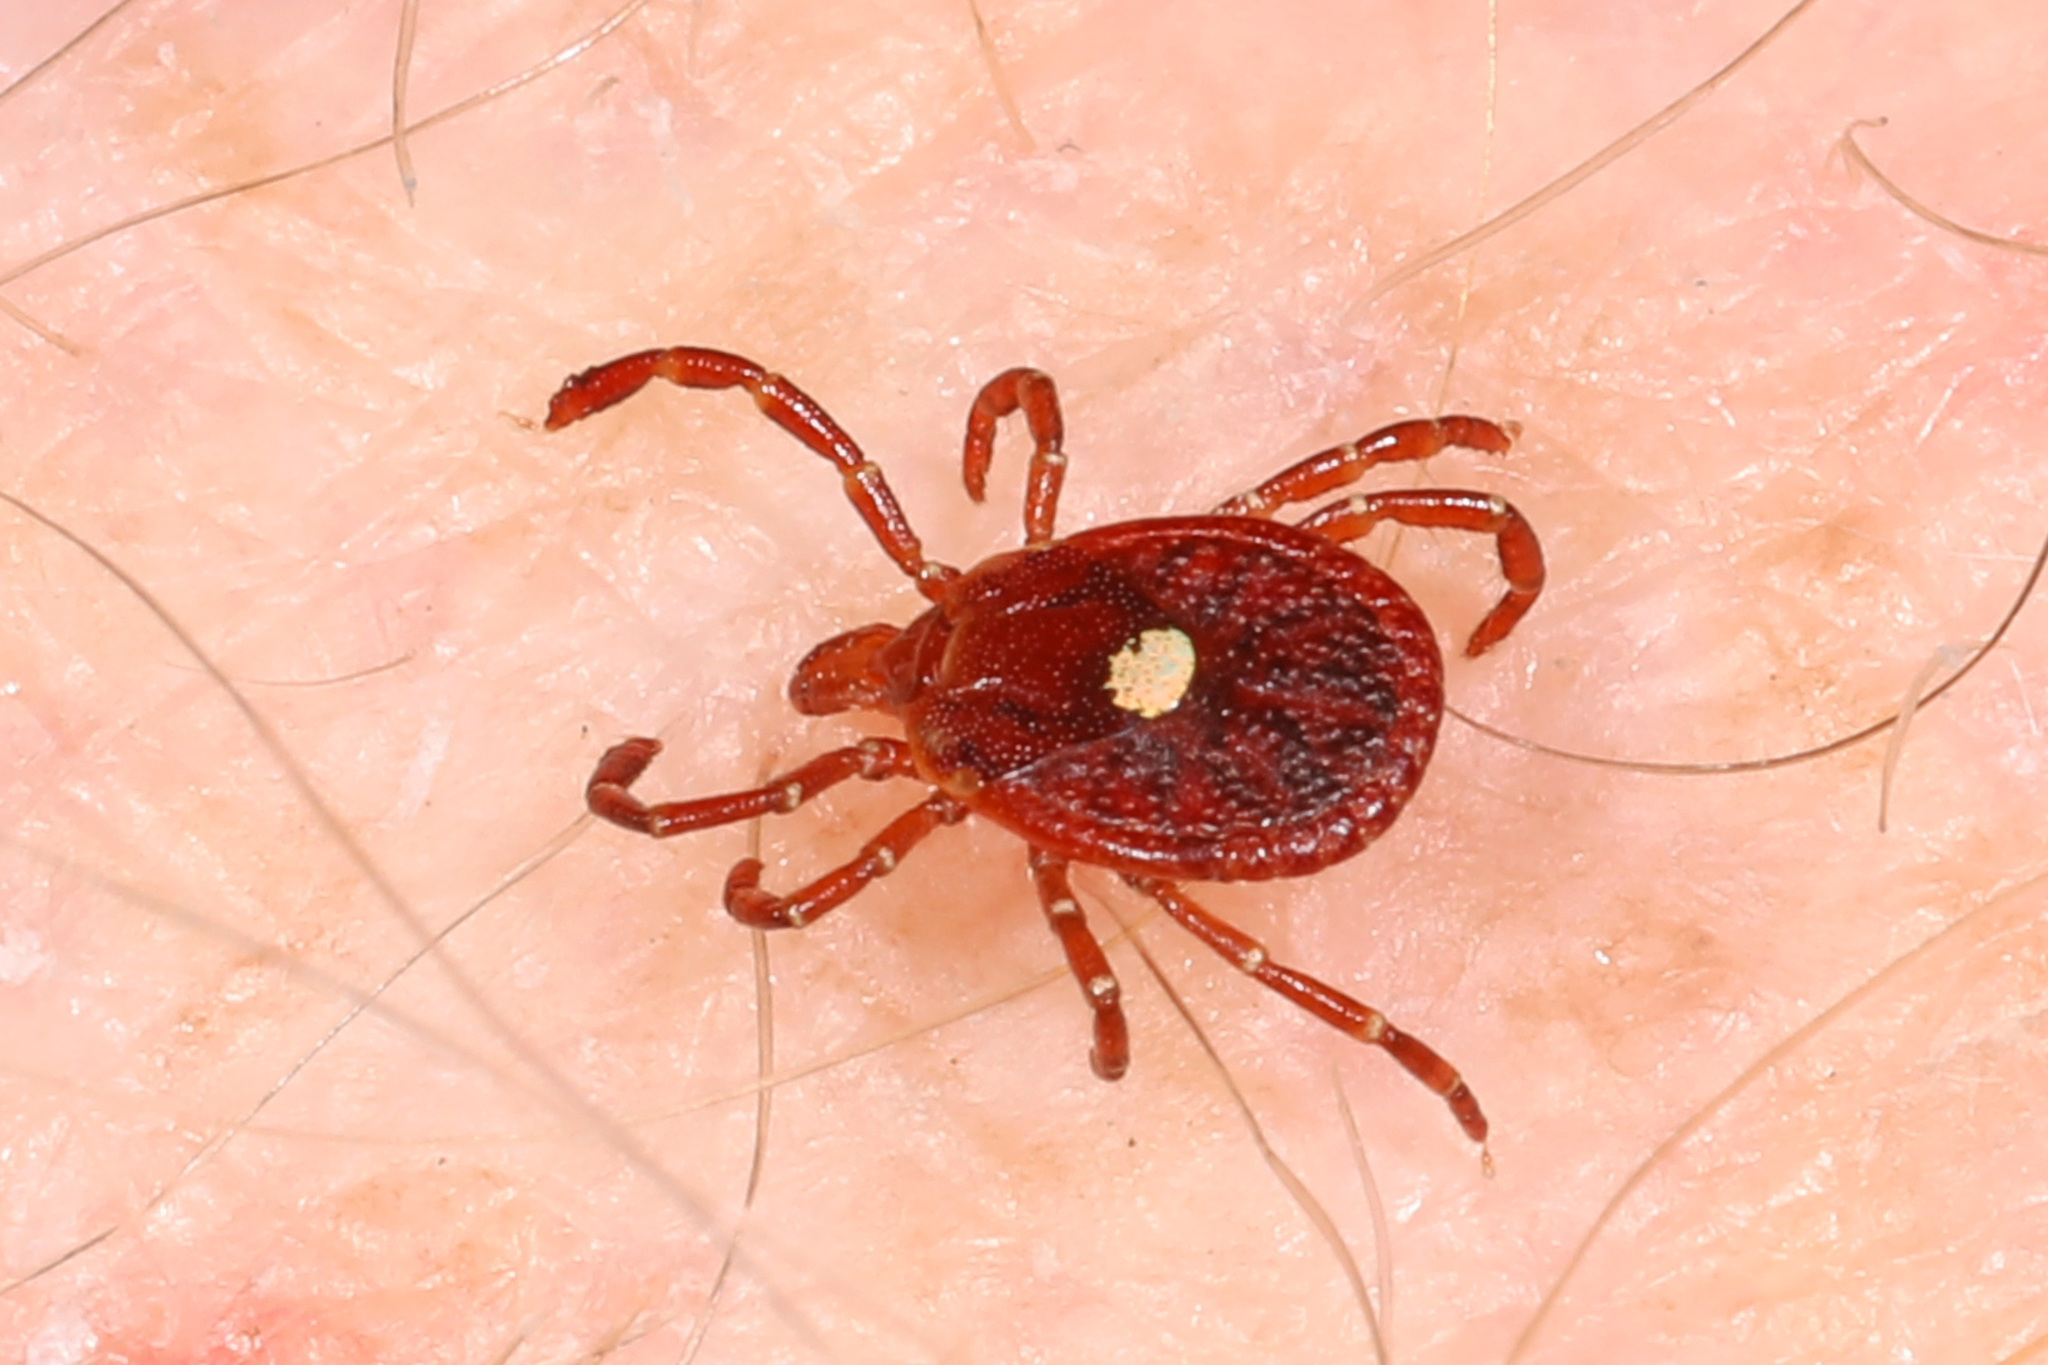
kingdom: Animalia
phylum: Arthropoda
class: Arachnida
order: Ixodida
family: Ixodidae
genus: Amblyomma
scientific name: Amblyomma americanum
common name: Lone star tick
